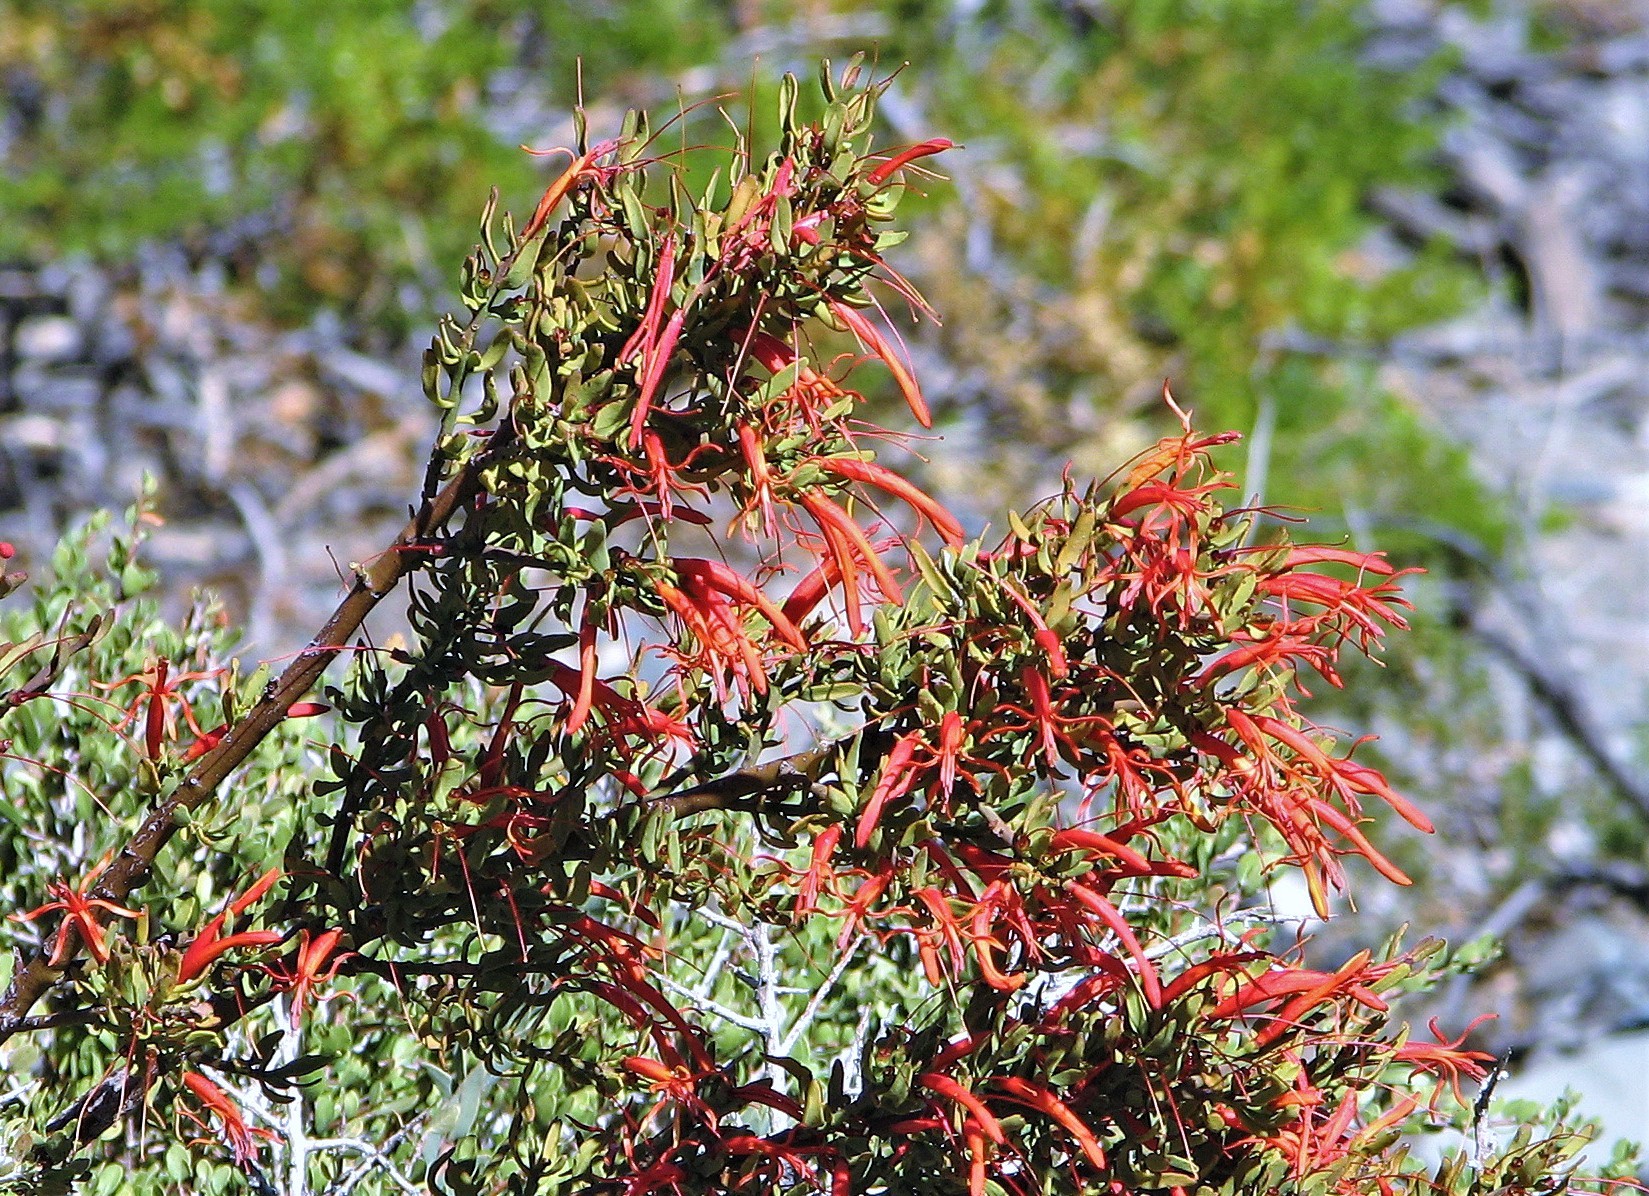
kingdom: Plantae
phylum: Tracheophyta
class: Magnoliopsida
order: Santalales
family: Loranthaceae
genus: Ligaria
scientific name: Ligaria cuneifolia
